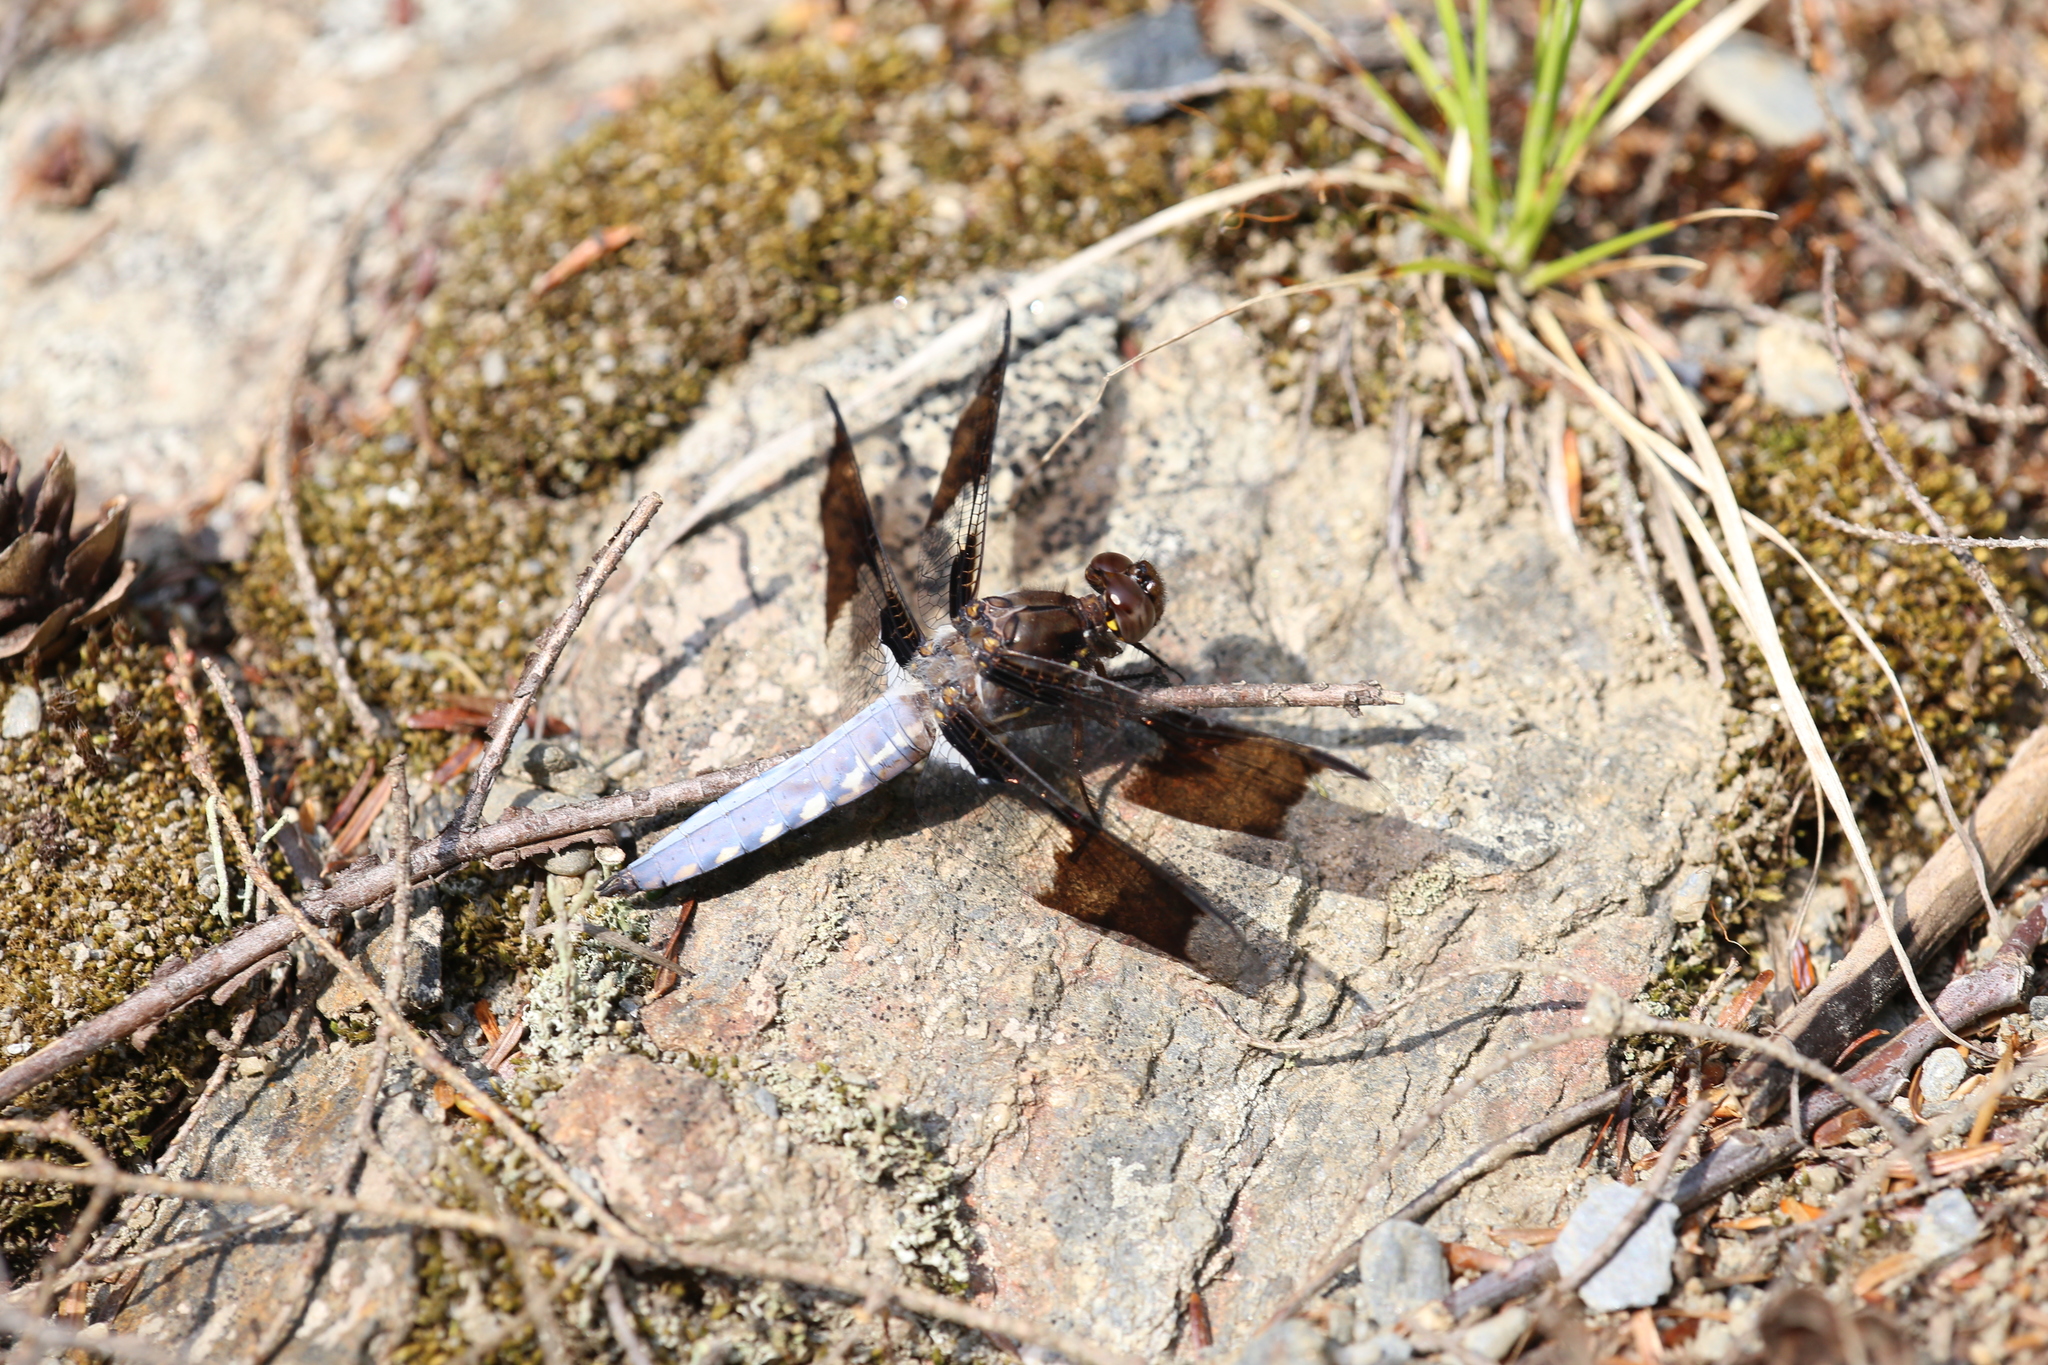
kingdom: Animalia
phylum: Arthropoda
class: Insecta
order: Odonata
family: Libellulidae
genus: Plathemis
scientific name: Plathemis lydia
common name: Common whitetail
